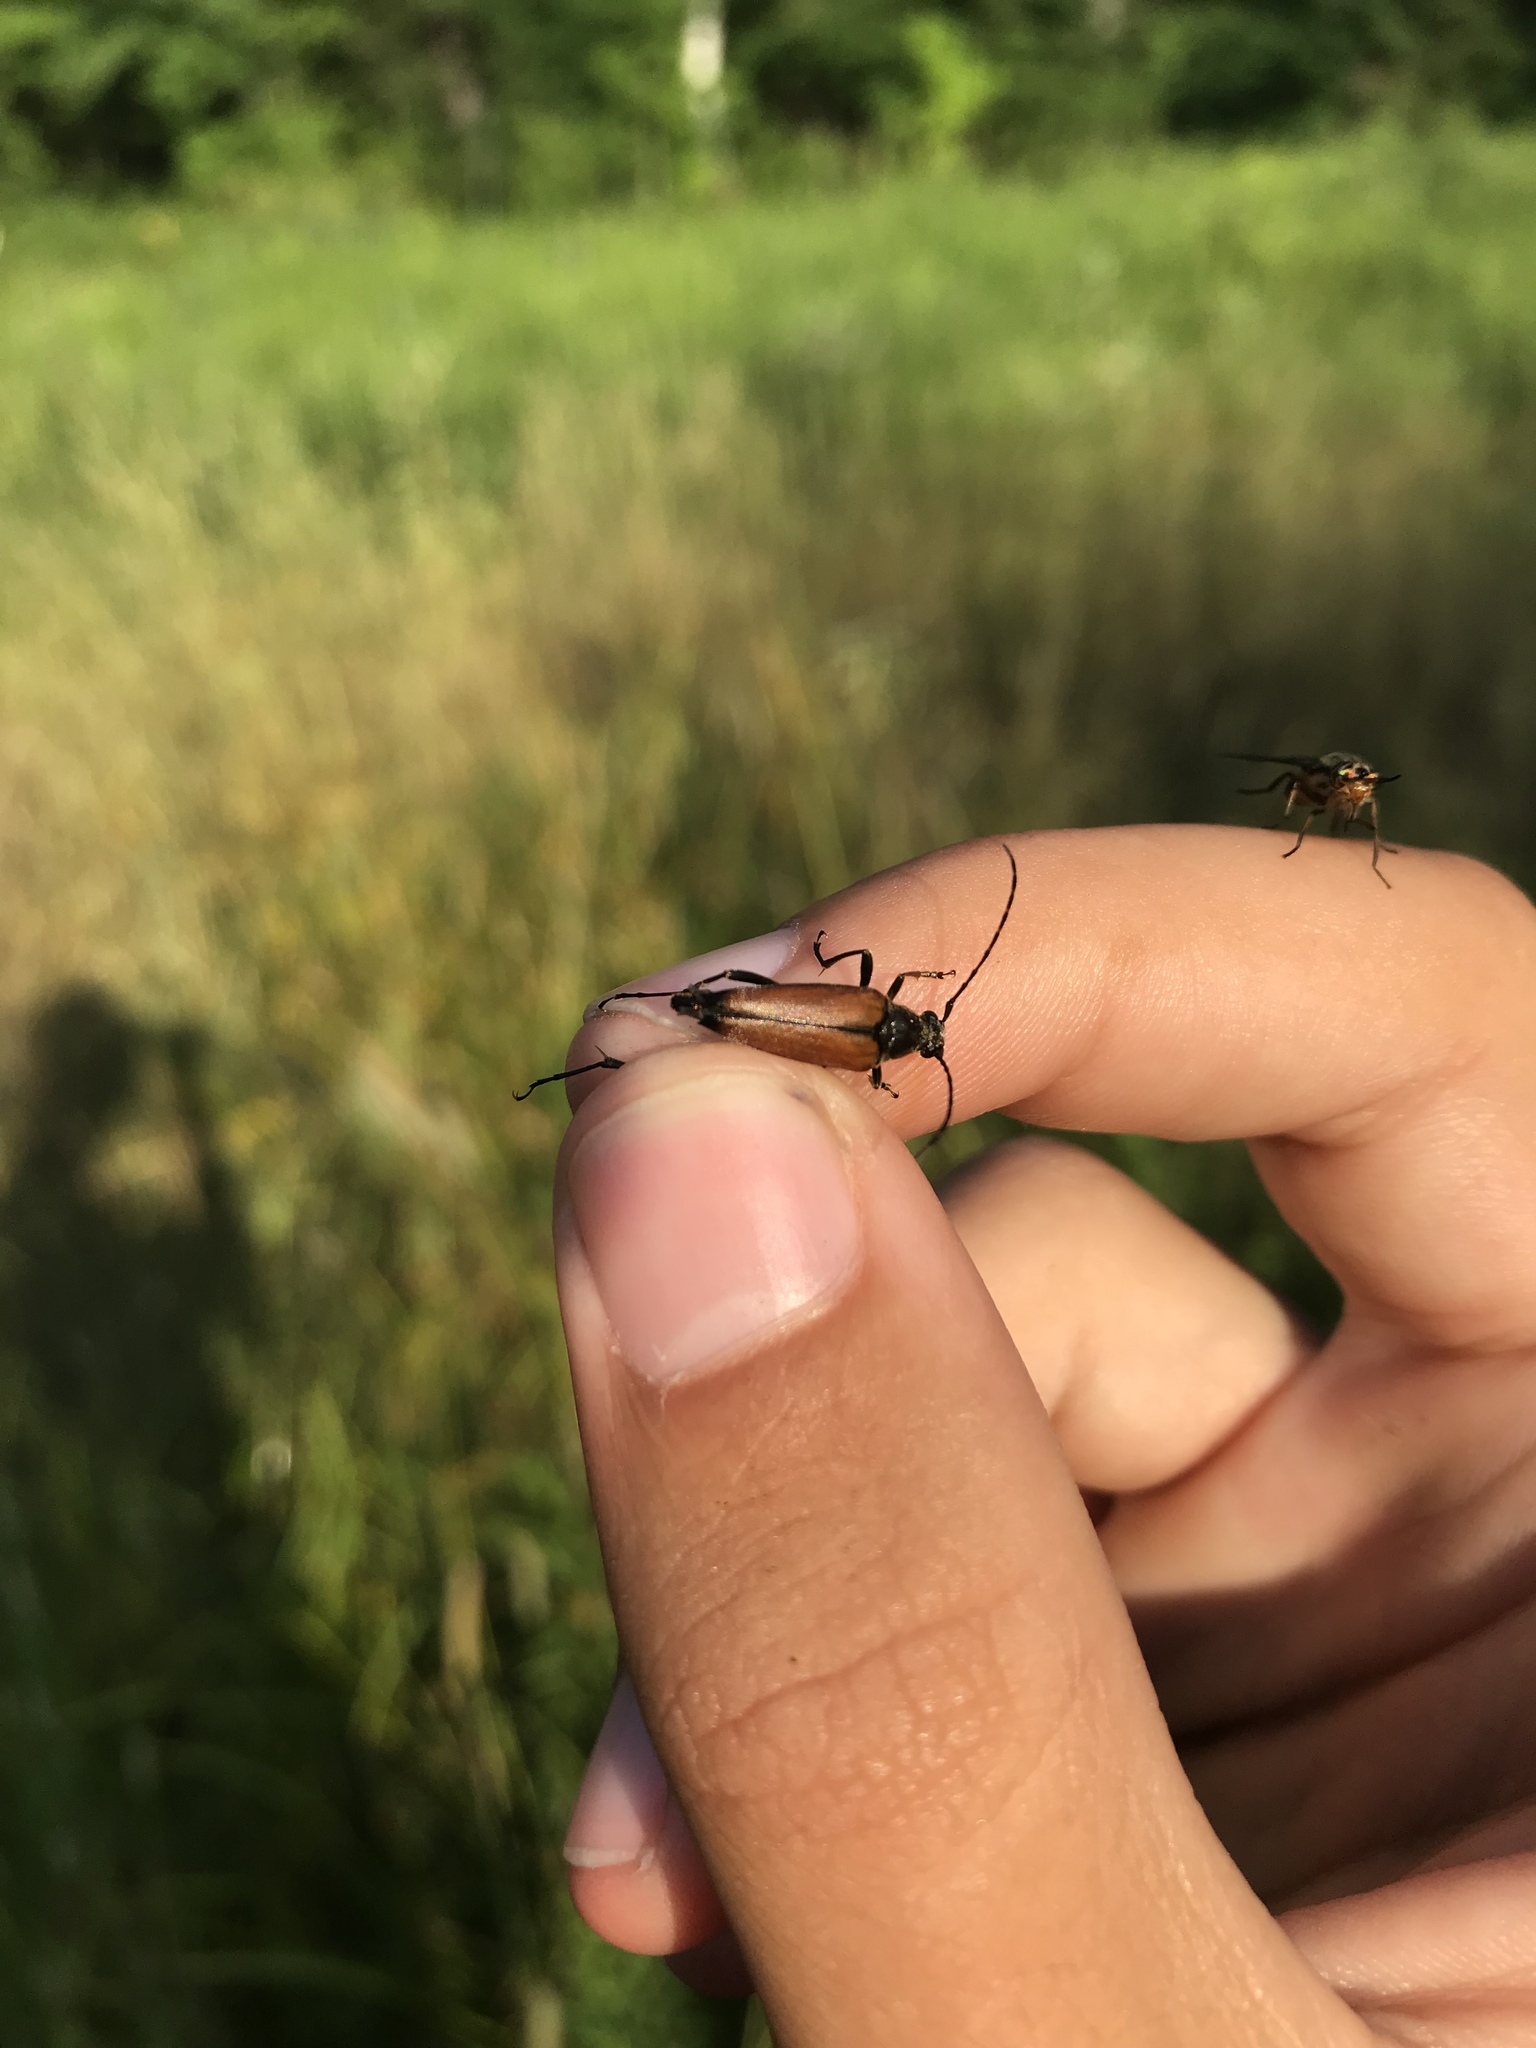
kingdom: Animalia
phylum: Arthropoda
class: Insecta
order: Coleoptera
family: Cerambycidae
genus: Etorofus
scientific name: Etorofus
